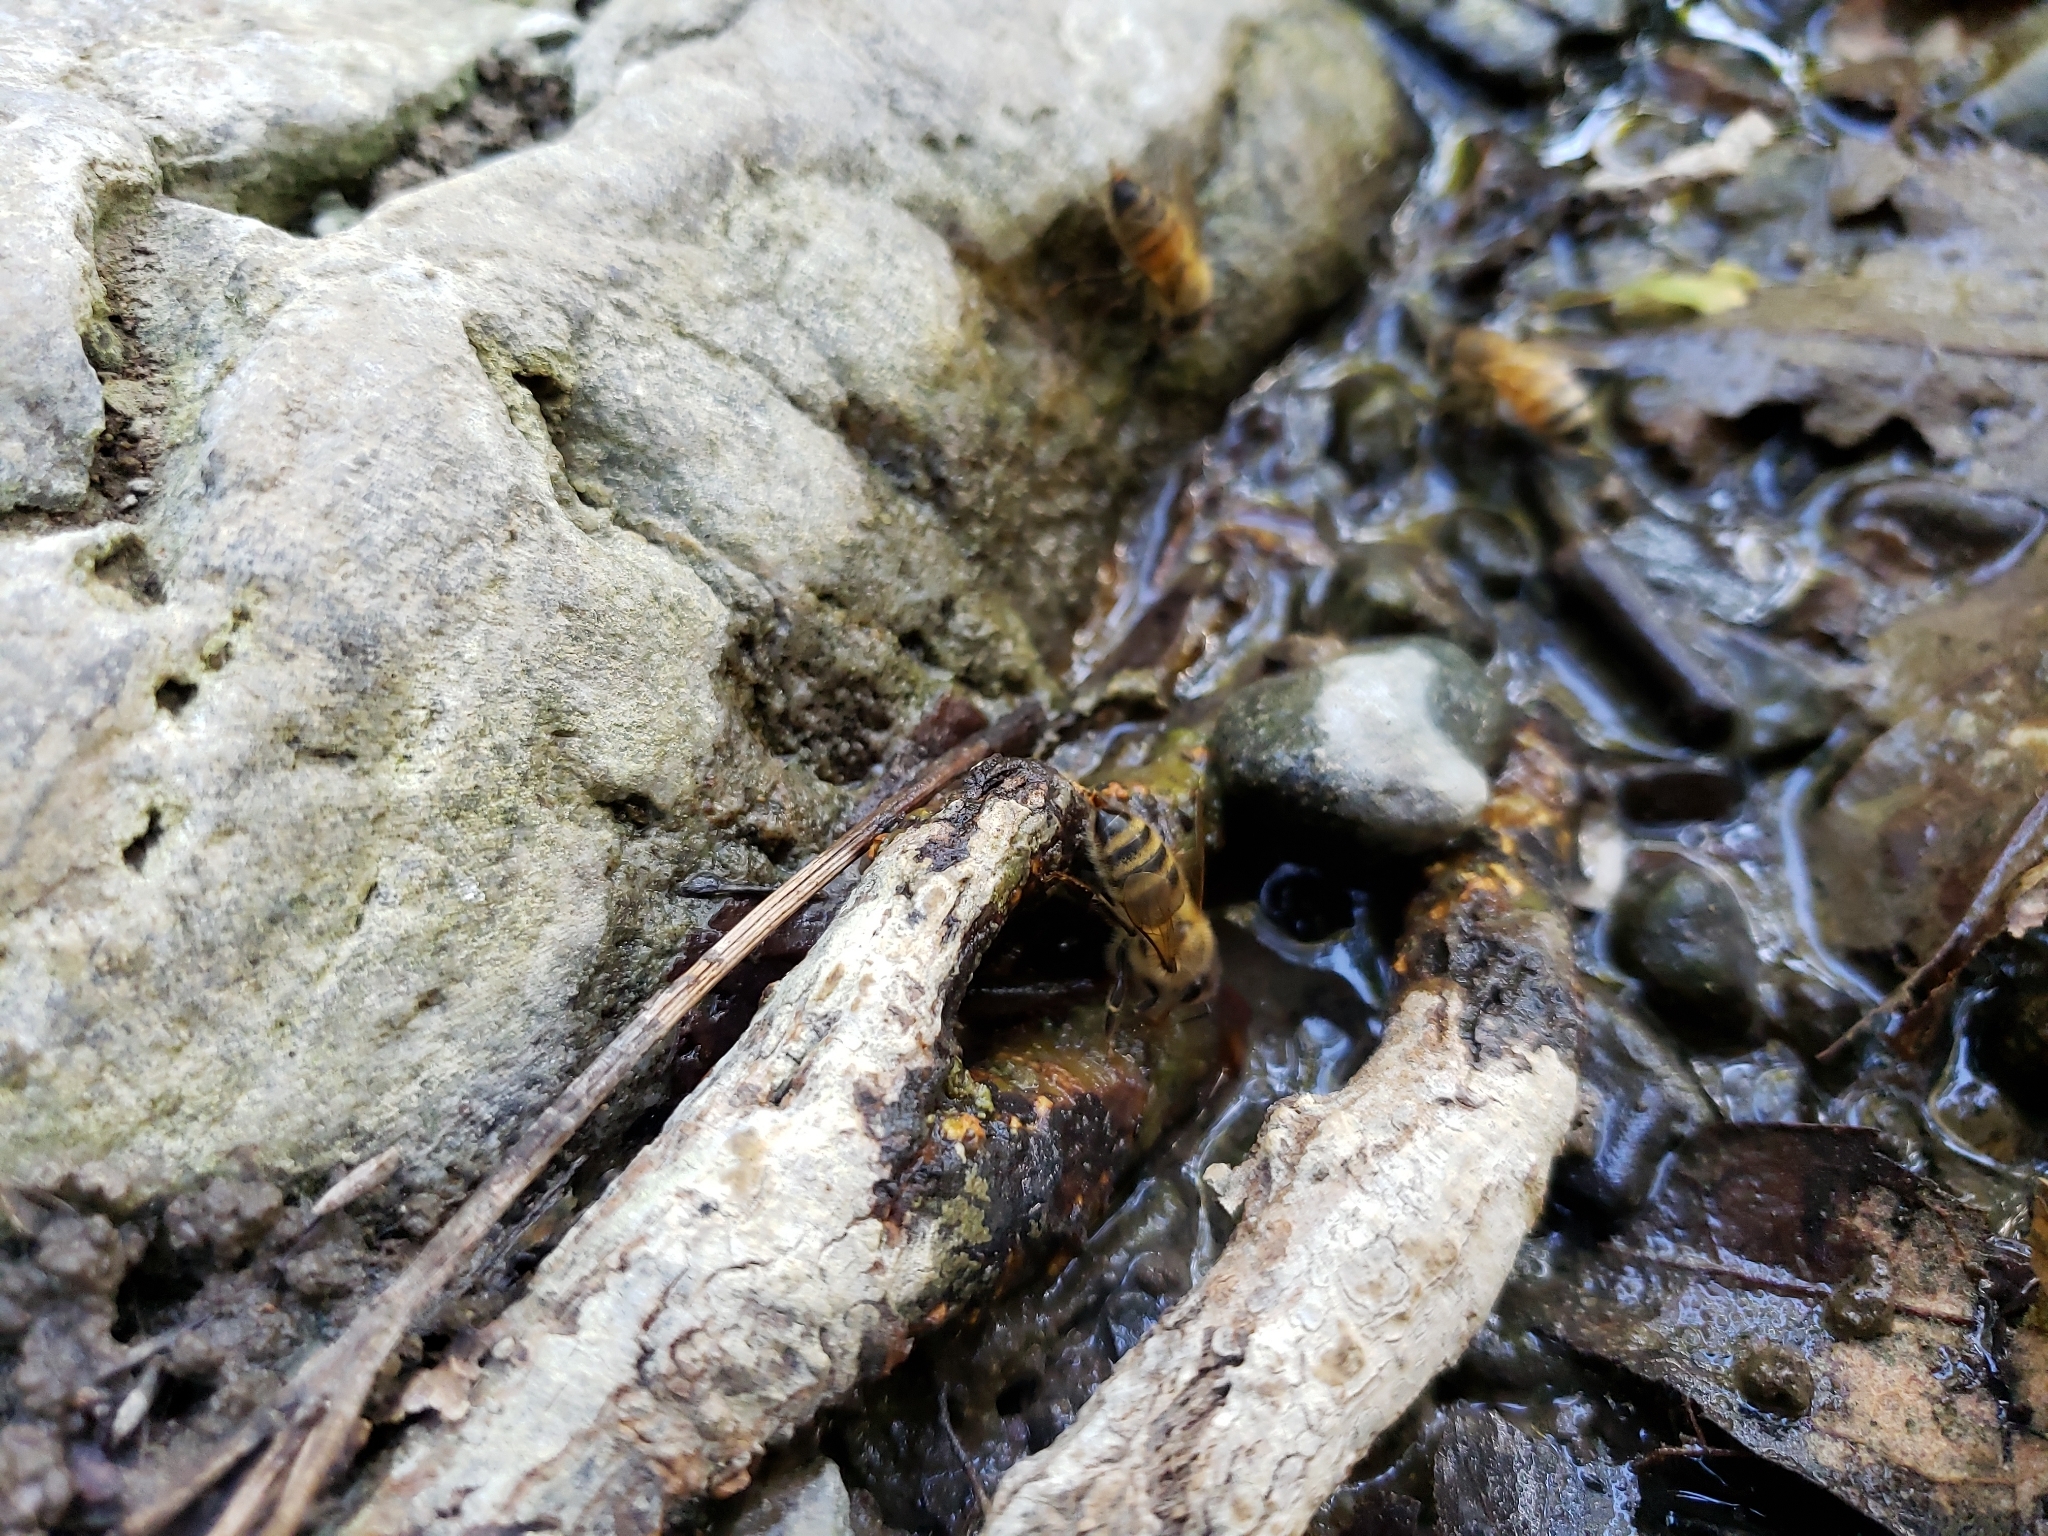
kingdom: Animalia
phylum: Arthropoda
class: Insecta
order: Hymenoptera
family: Apidae
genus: Apis
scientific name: Apis mellifera
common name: Honey bee
